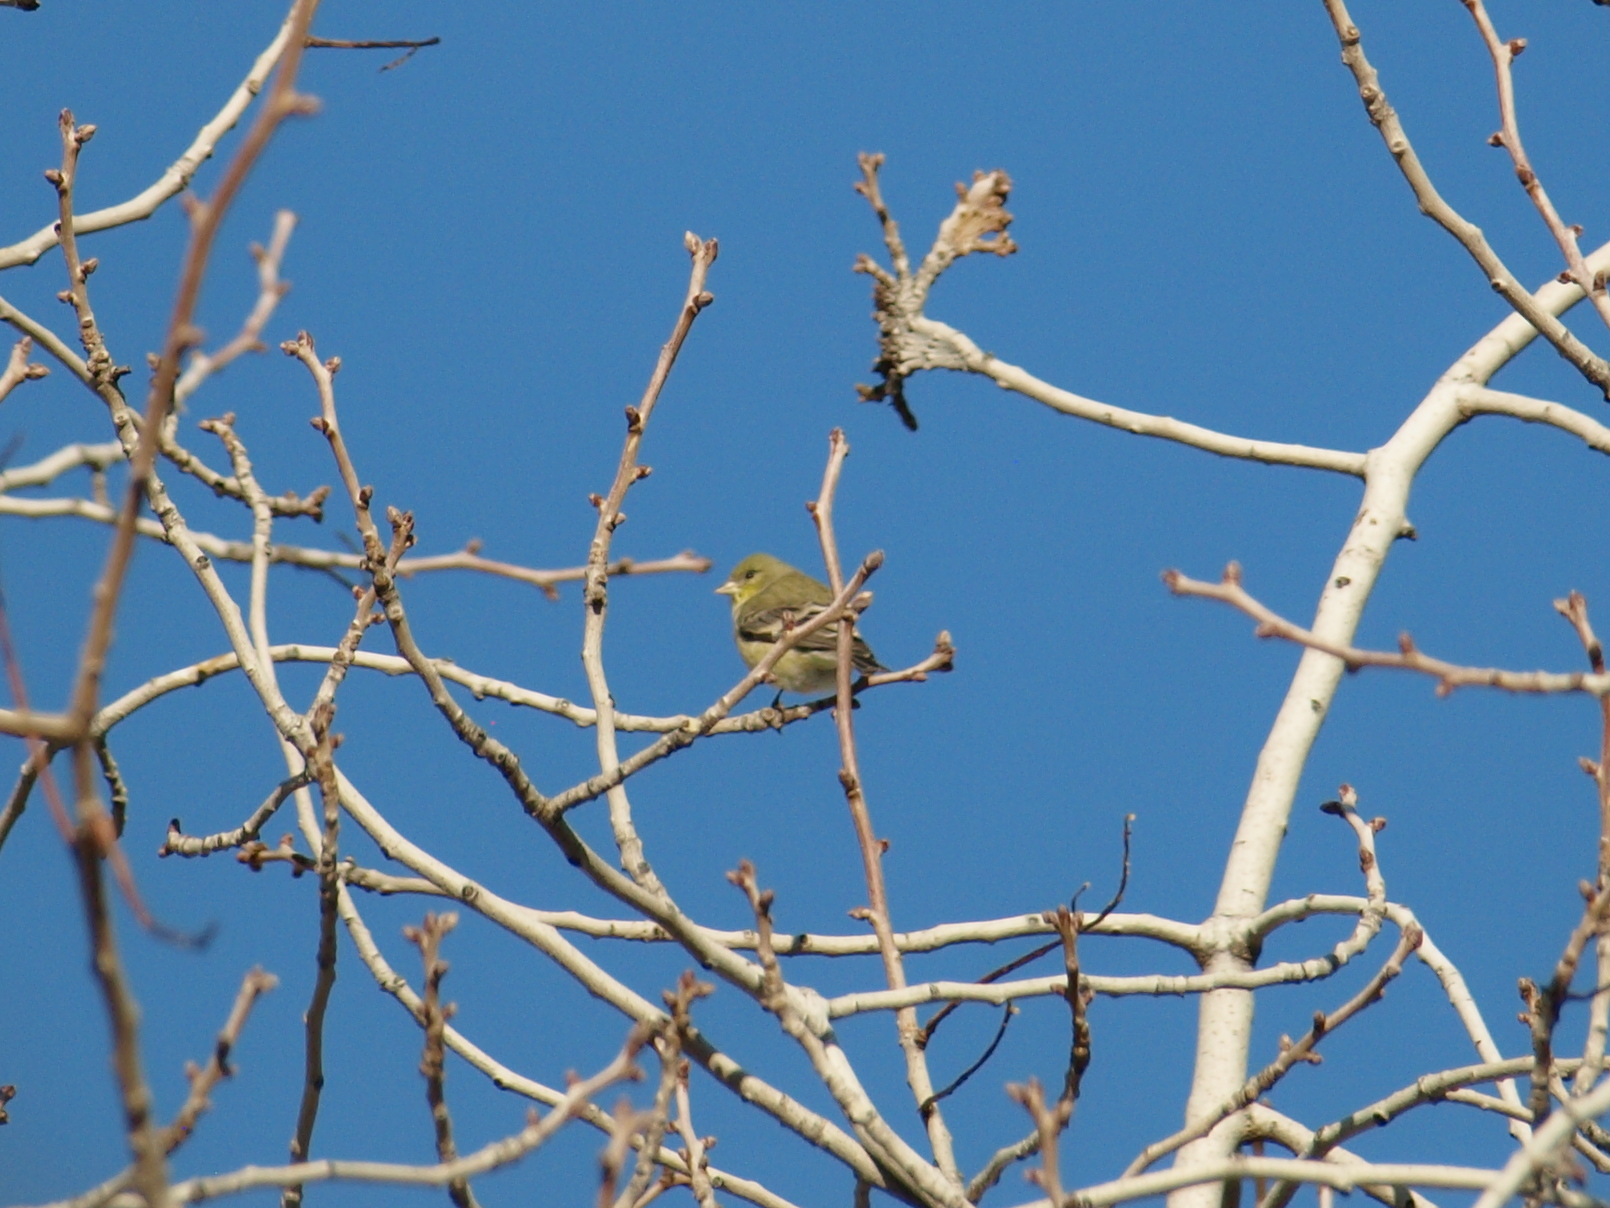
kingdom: Animalia
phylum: Chordata
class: Aves
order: Passeriformes
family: Fringillidae
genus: Spinus
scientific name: Spinus psaltria
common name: Lesser goldfinch
